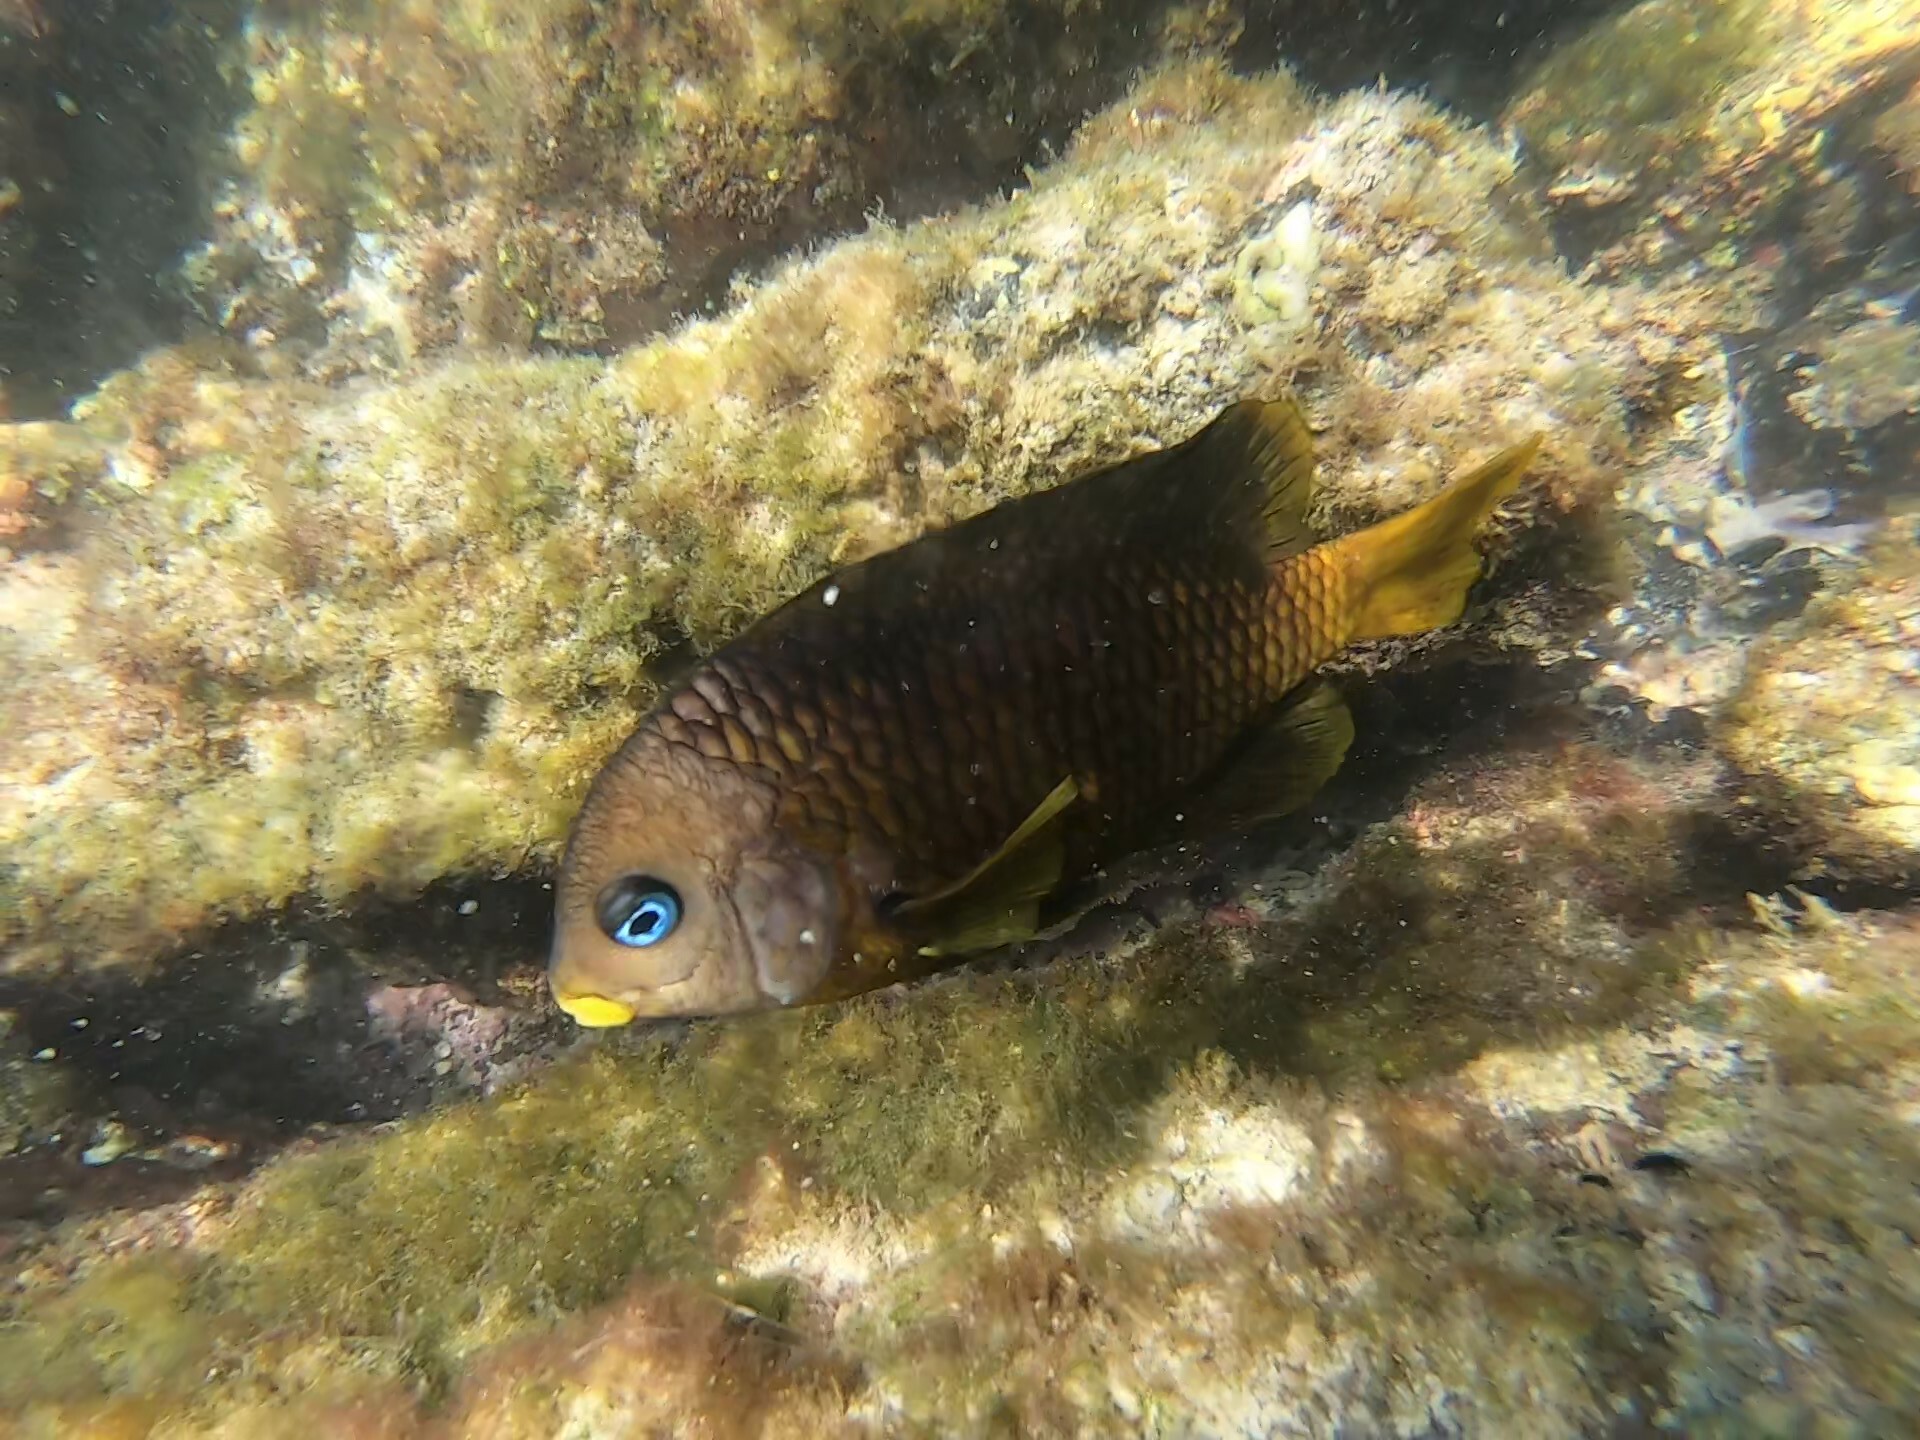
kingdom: Animalia
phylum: Chordata
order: Perciformes
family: Pomacentridae
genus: Stegastes
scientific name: Stegastes arcifrons
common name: Galapagos gregory
